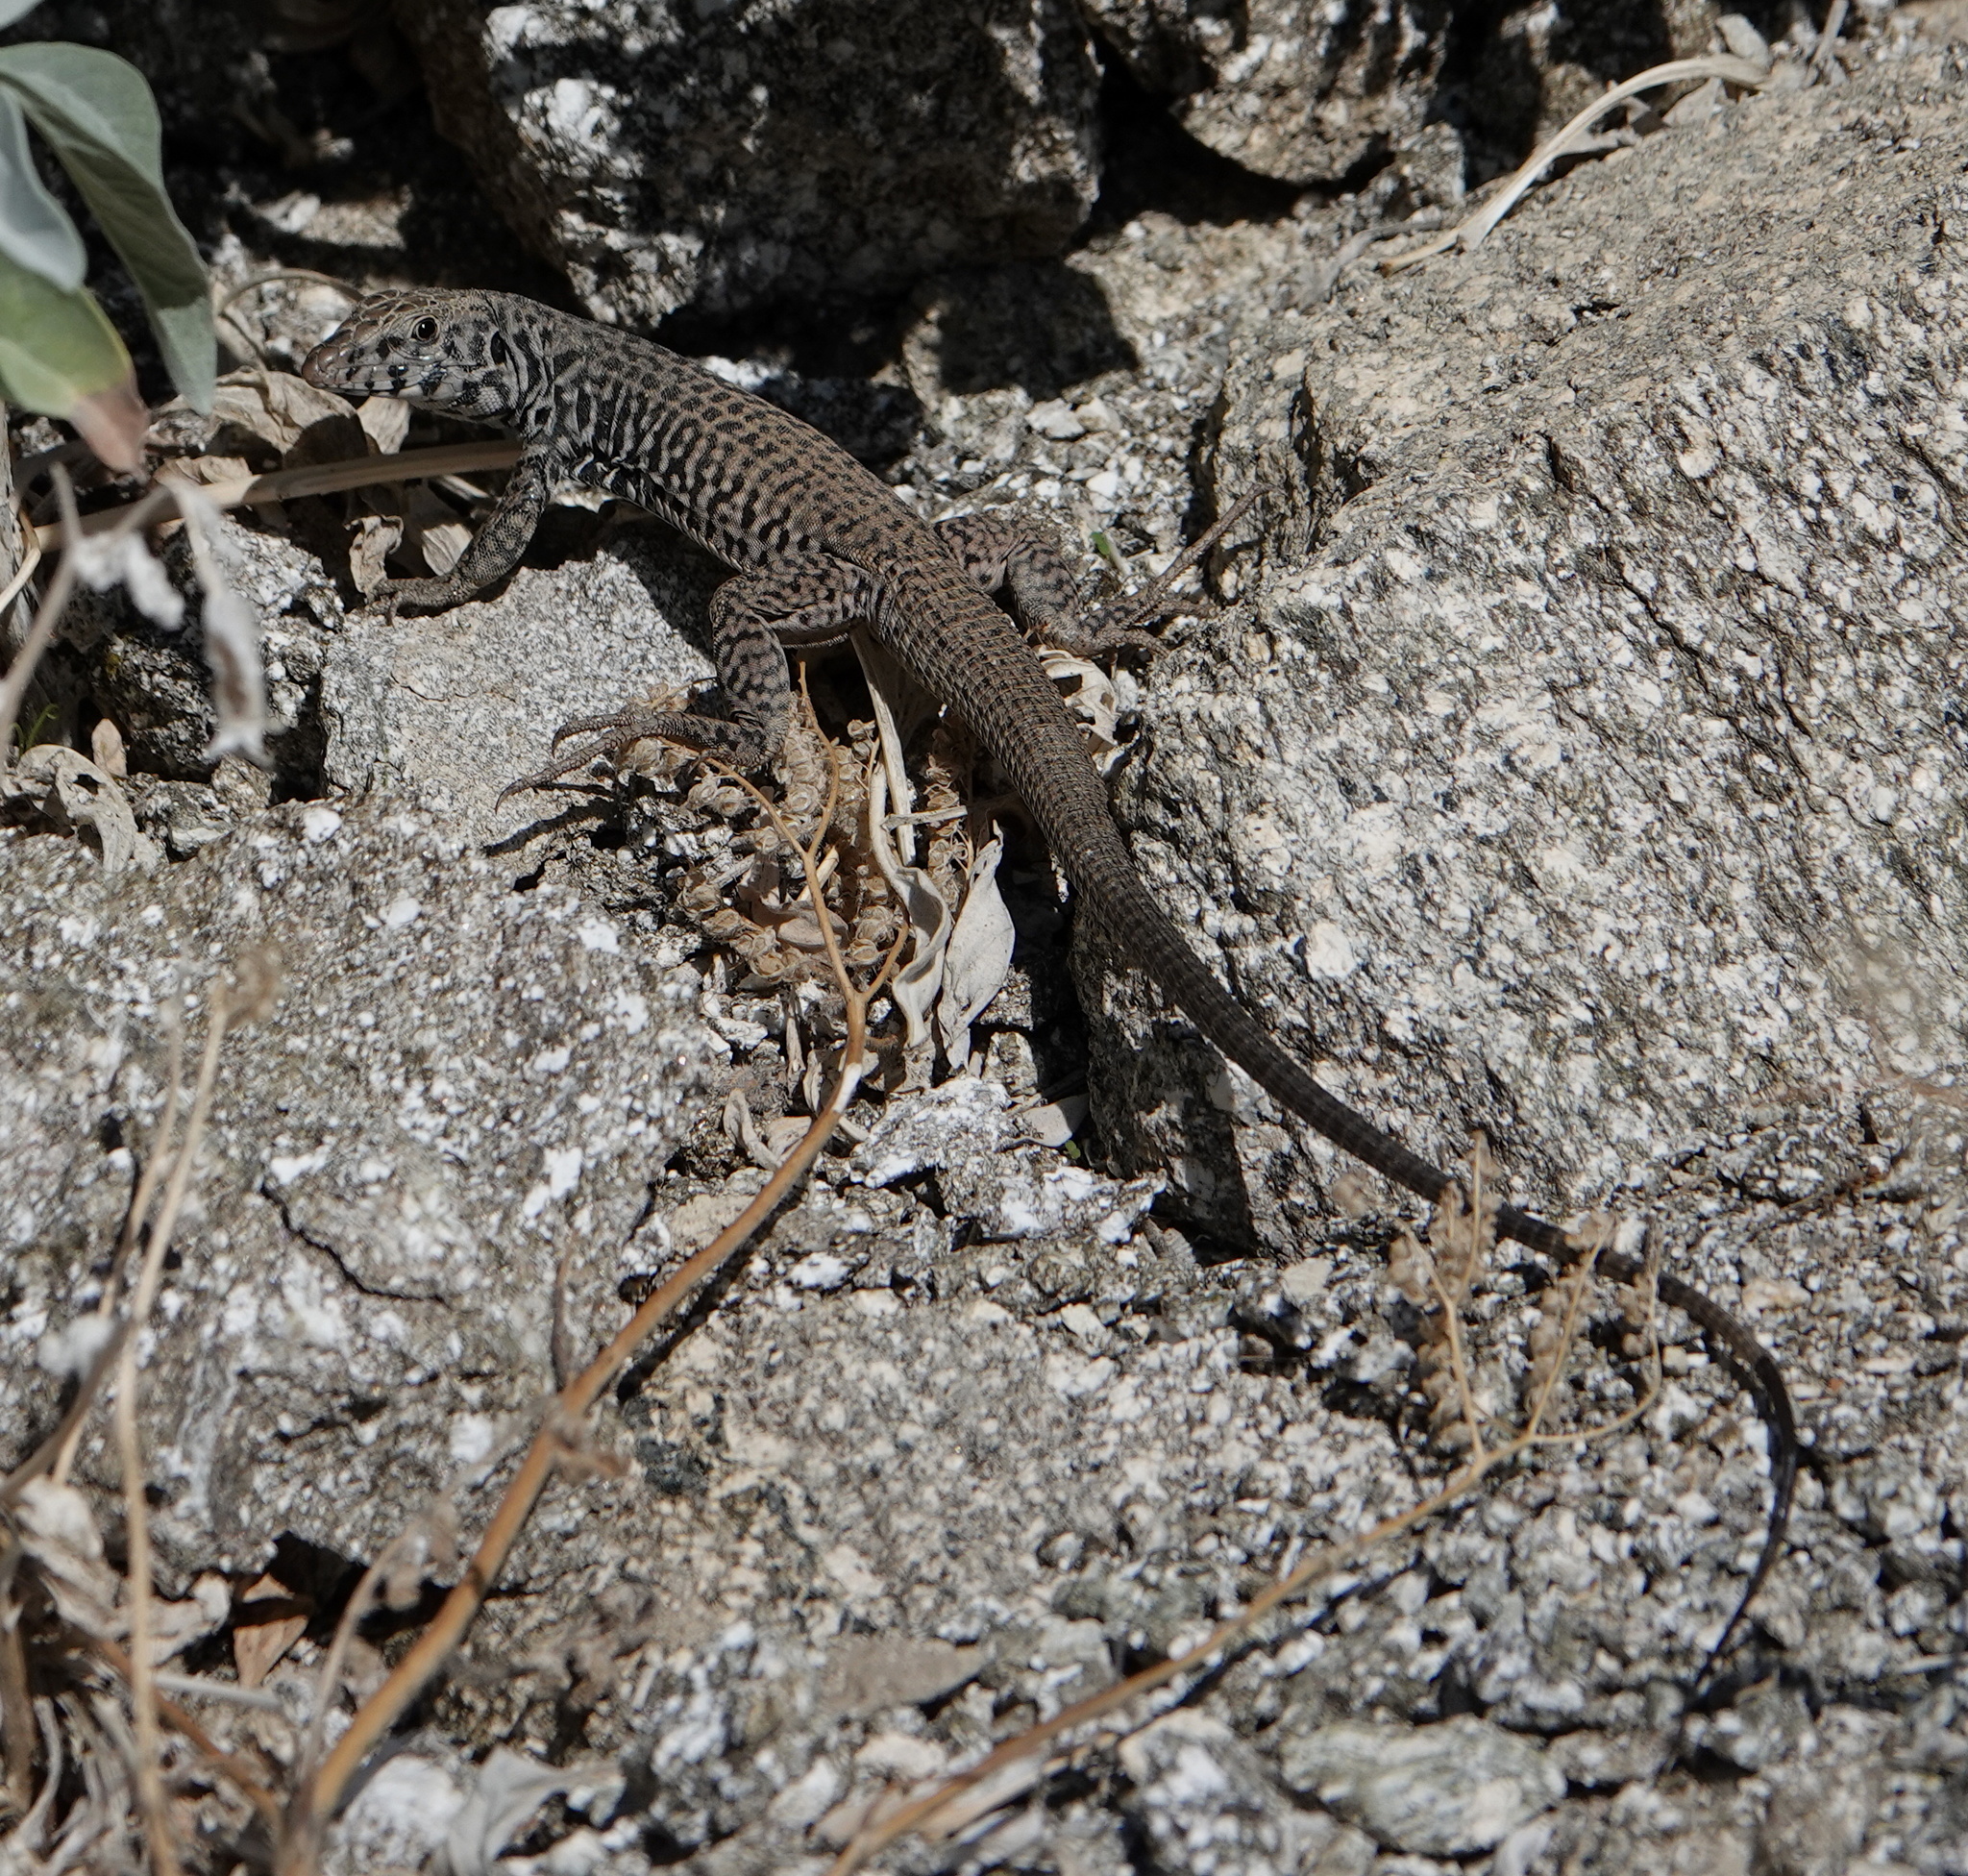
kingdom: Animalia
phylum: Chordata
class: Squamata
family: Teiidae
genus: Aspidoscelis
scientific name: Aspidoscelis tigris
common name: Tiger whiptail
